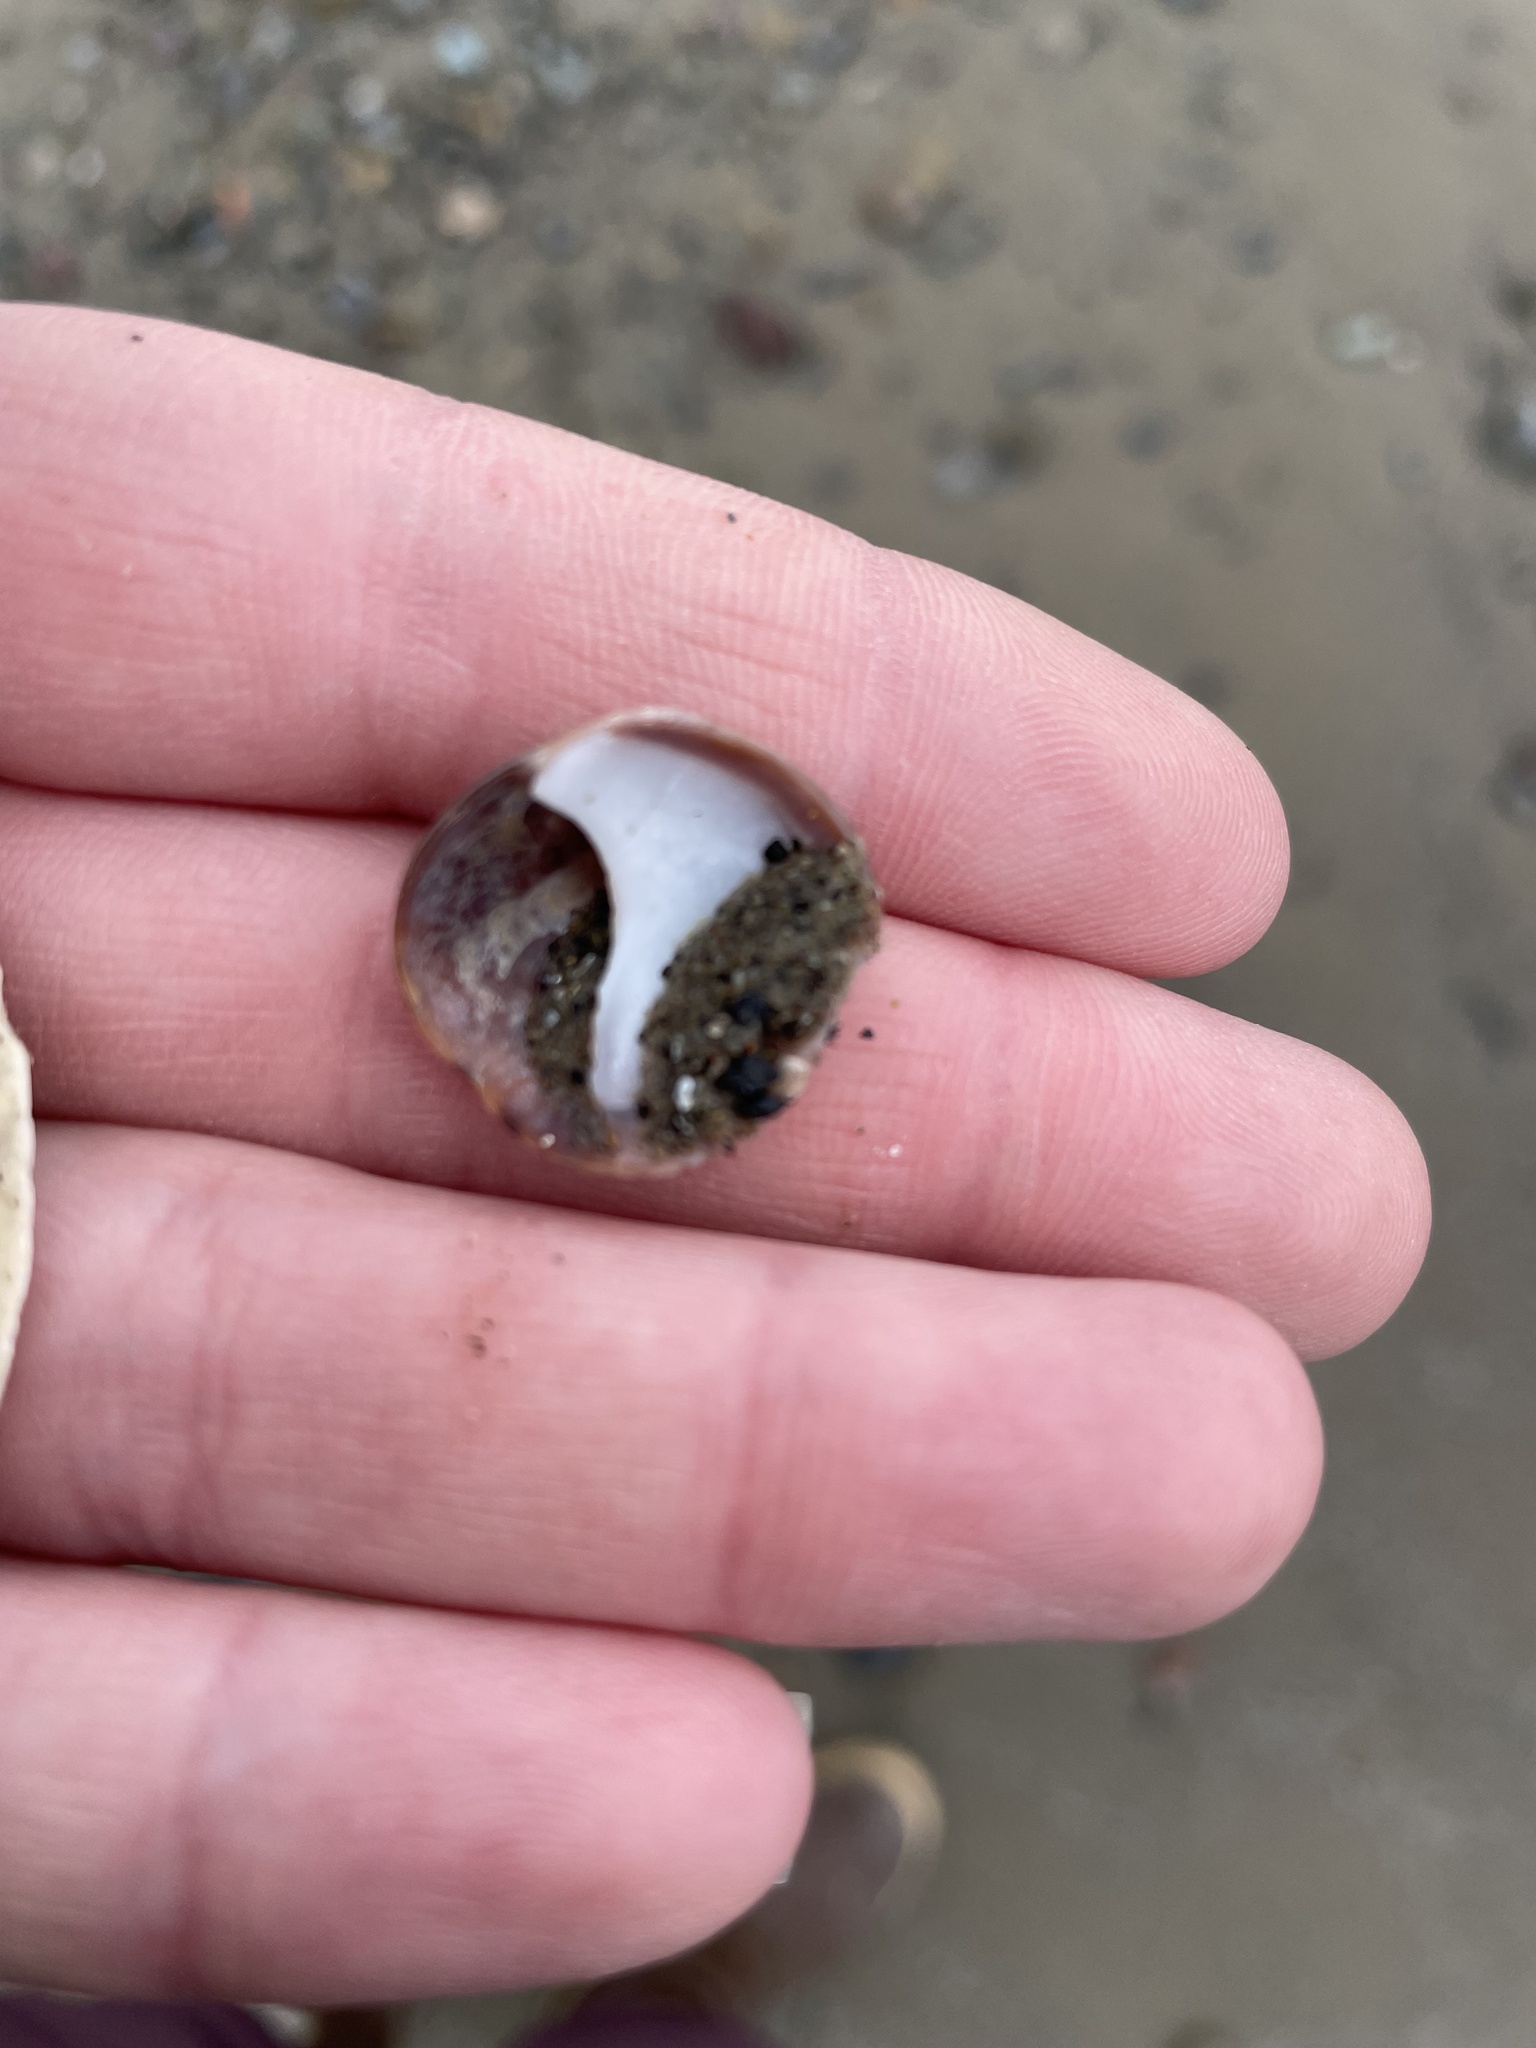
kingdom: Animalia
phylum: Mollusca
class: Gastropoda
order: Littorinimorpha
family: Calyptraeidae
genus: Crepidula
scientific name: Crepidula fornicata
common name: Slipper limpet
